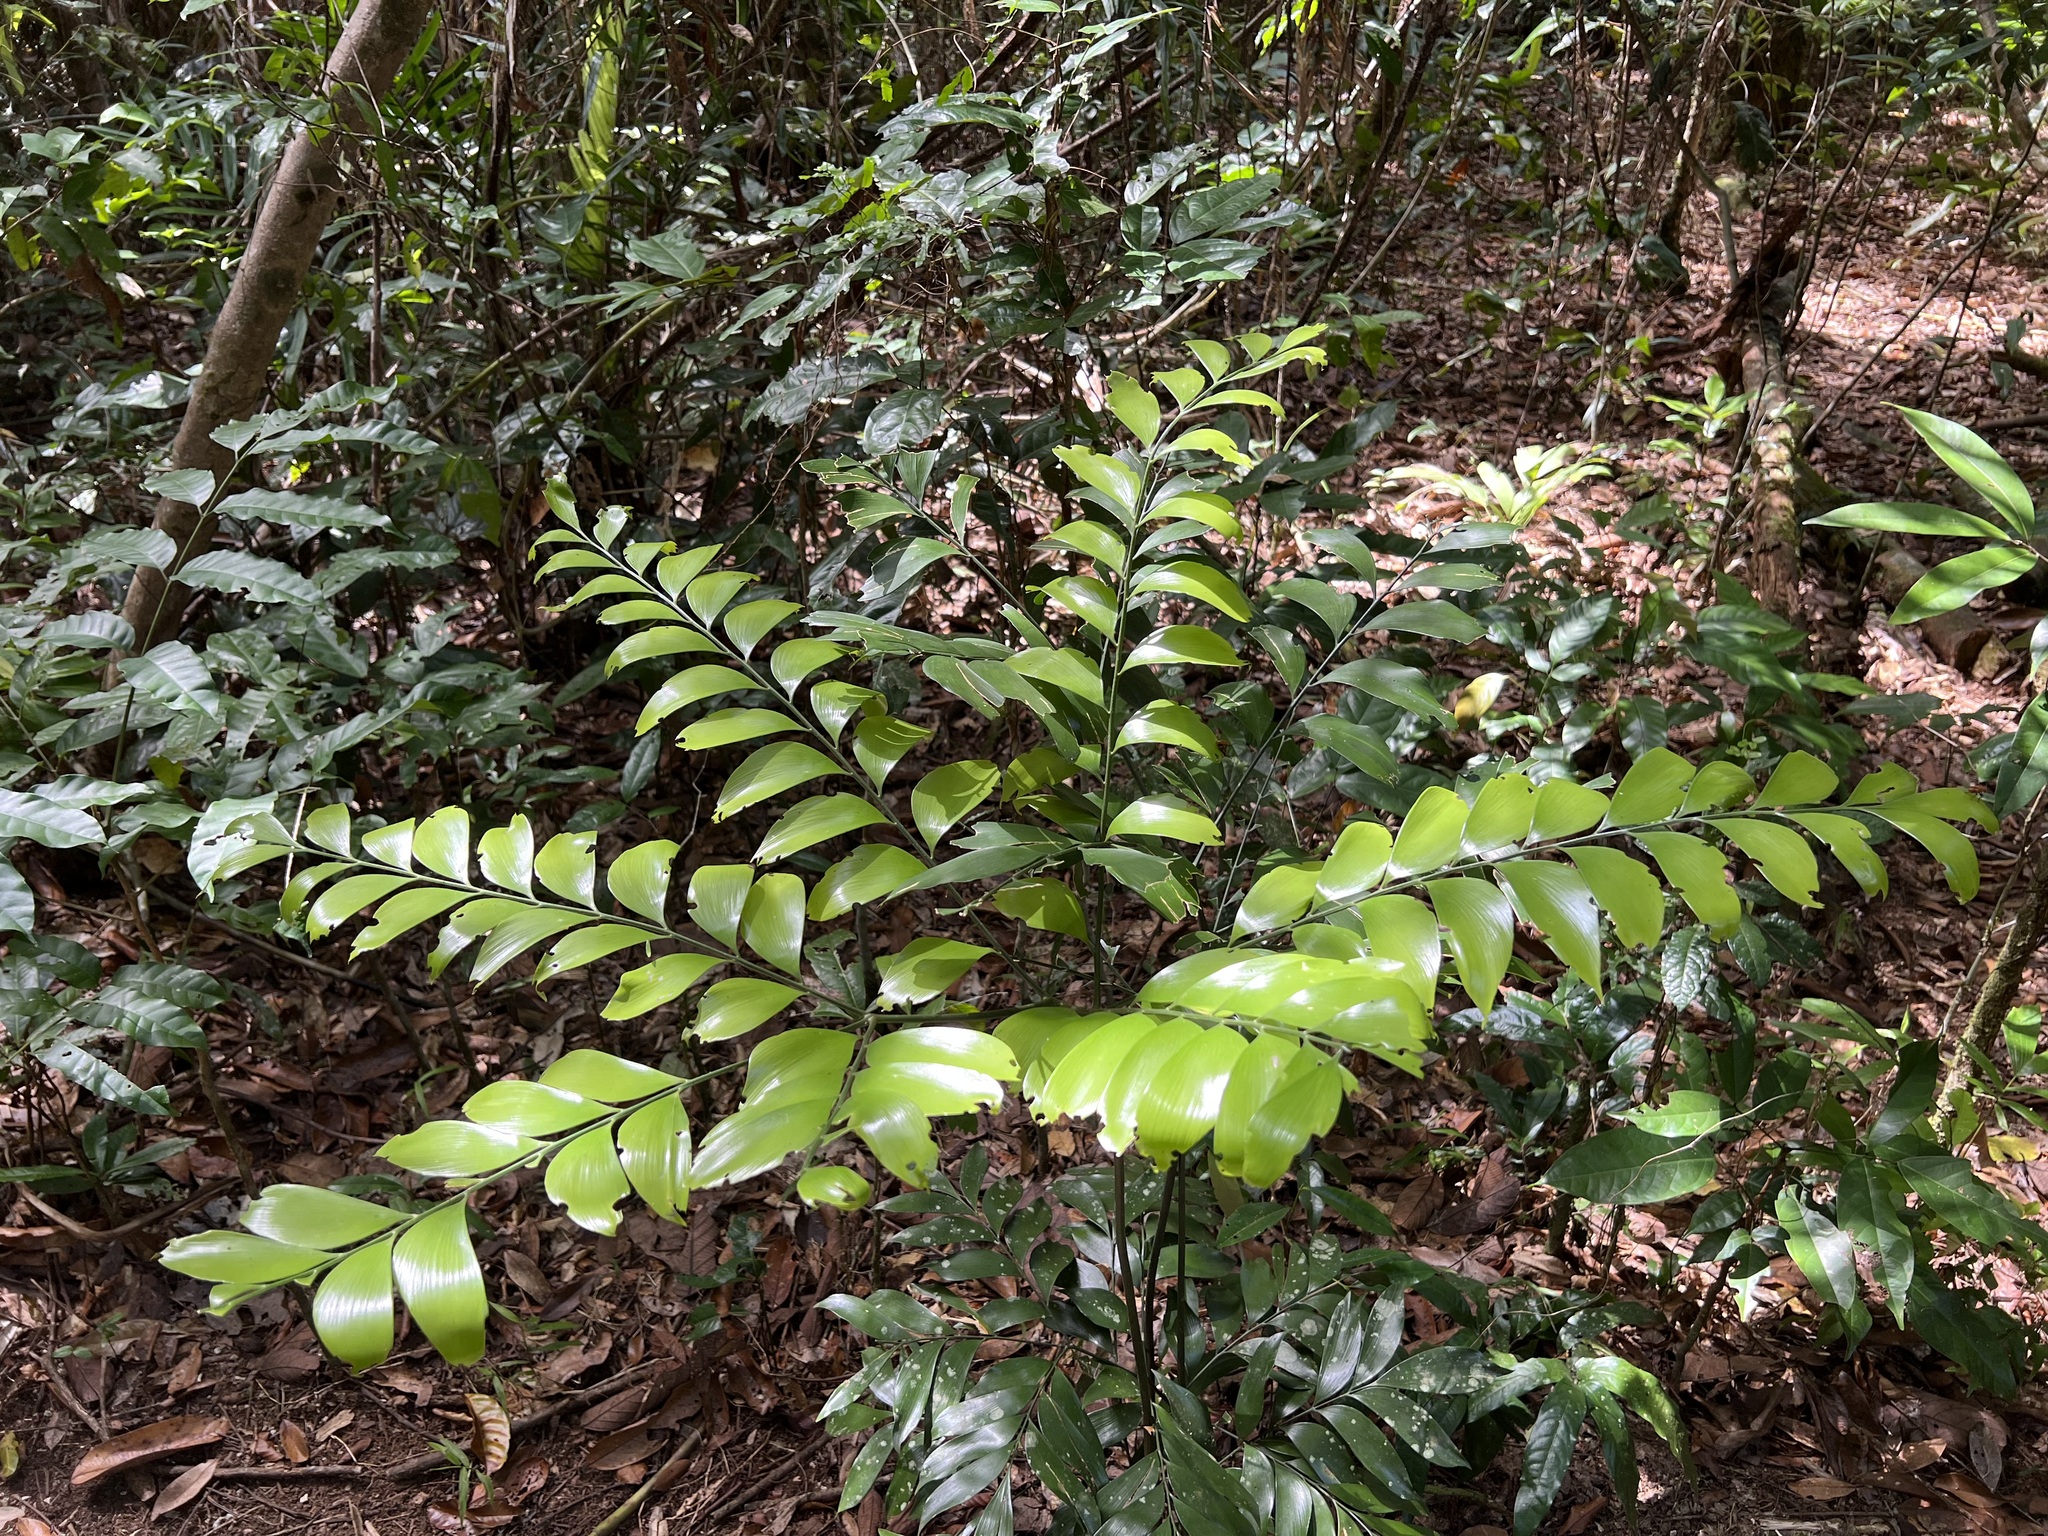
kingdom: Plantae
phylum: Tracheophyta
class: Cycadopsida
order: Cycadales
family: Zamiaceae
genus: Bowenia
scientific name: Bowenia spectabilis
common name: Zamia-fern
